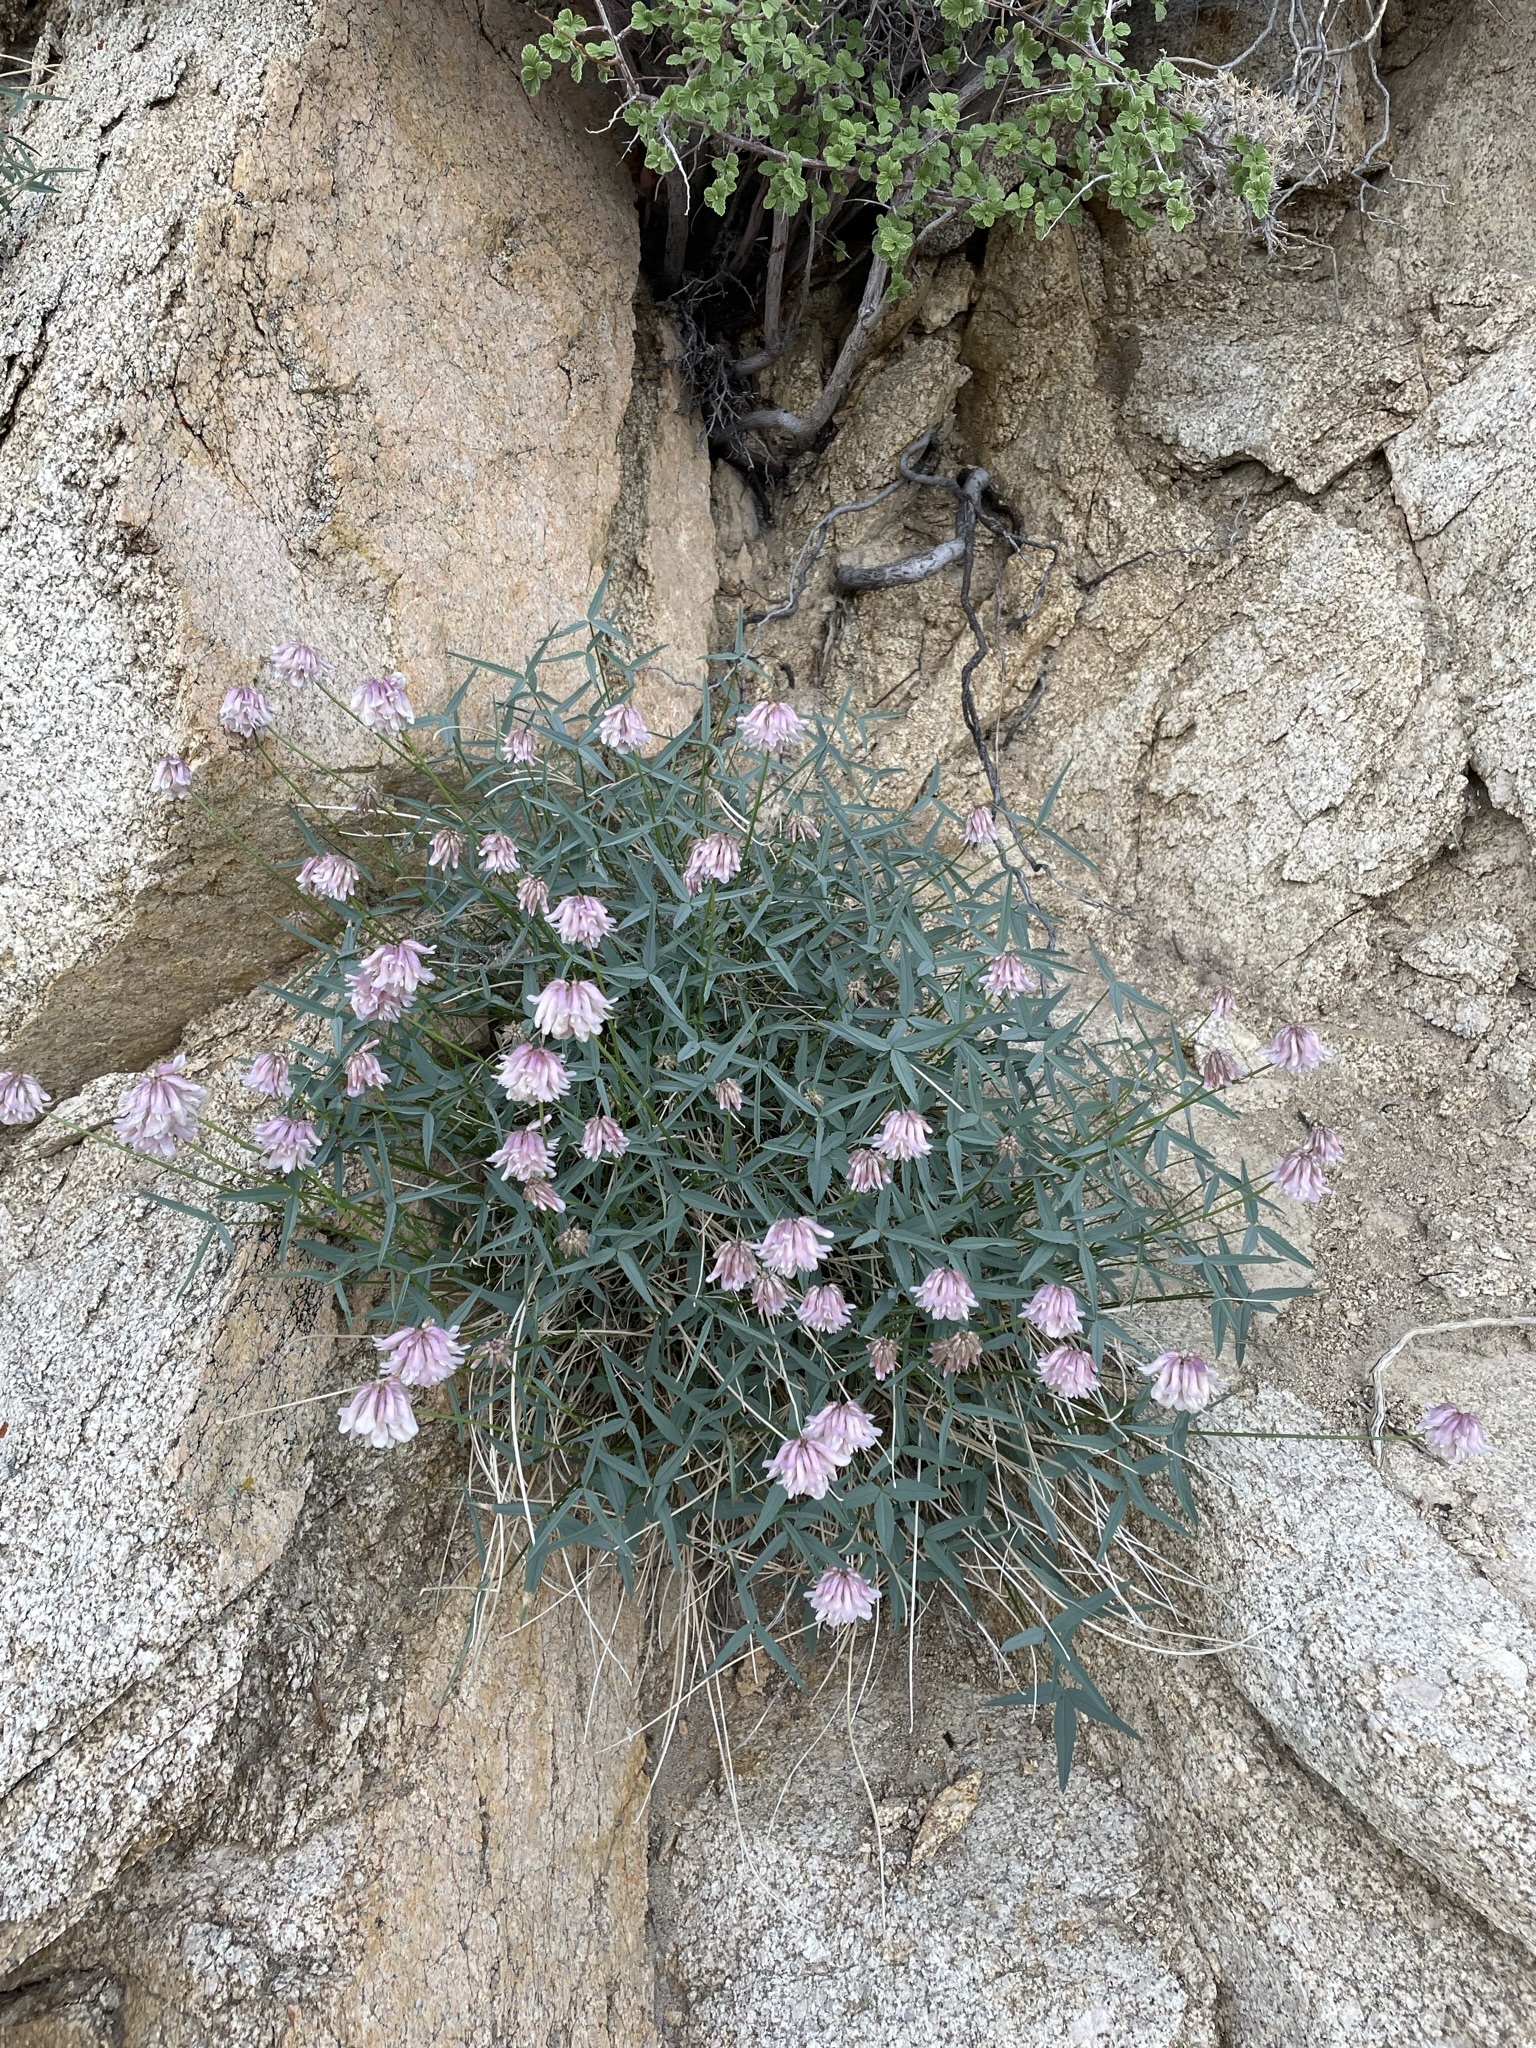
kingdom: Plantae
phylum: Tracheophyta
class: Magnoliopsida
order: Fabales
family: Fabaceae
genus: Trifolium
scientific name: Trifolium dedeckerae
